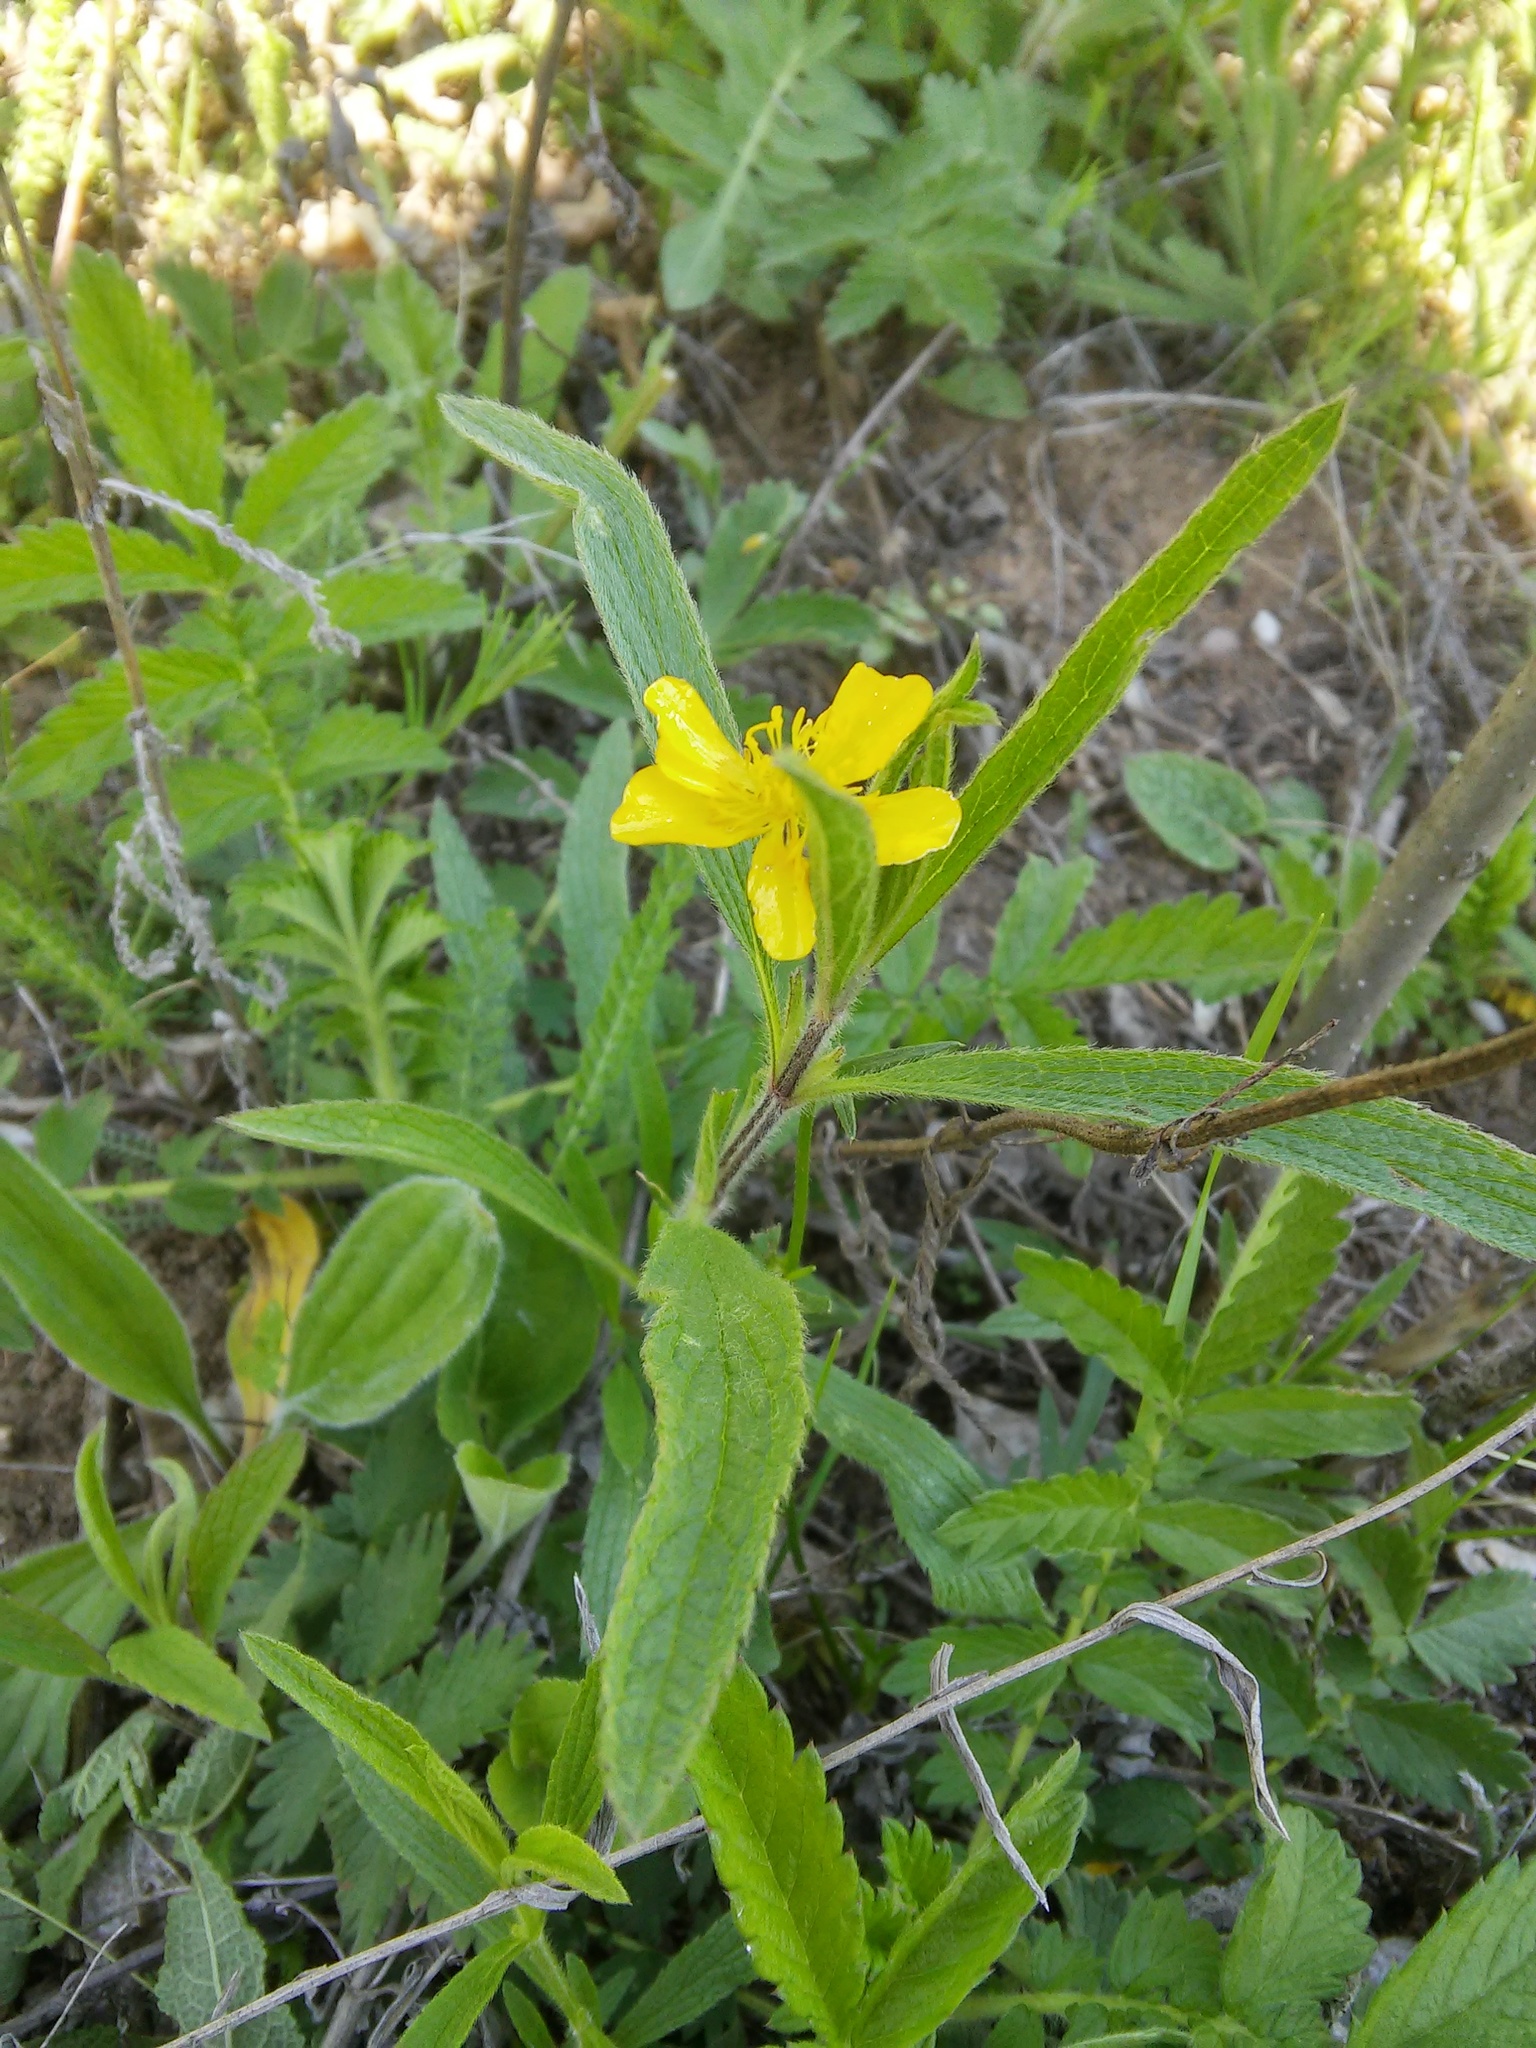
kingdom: Plantae
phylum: Tracheophyta
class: Magnoliopsida
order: Ranunculales
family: Ranunculaceae
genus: Ranunculus
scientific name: Ranunculus illyricus
